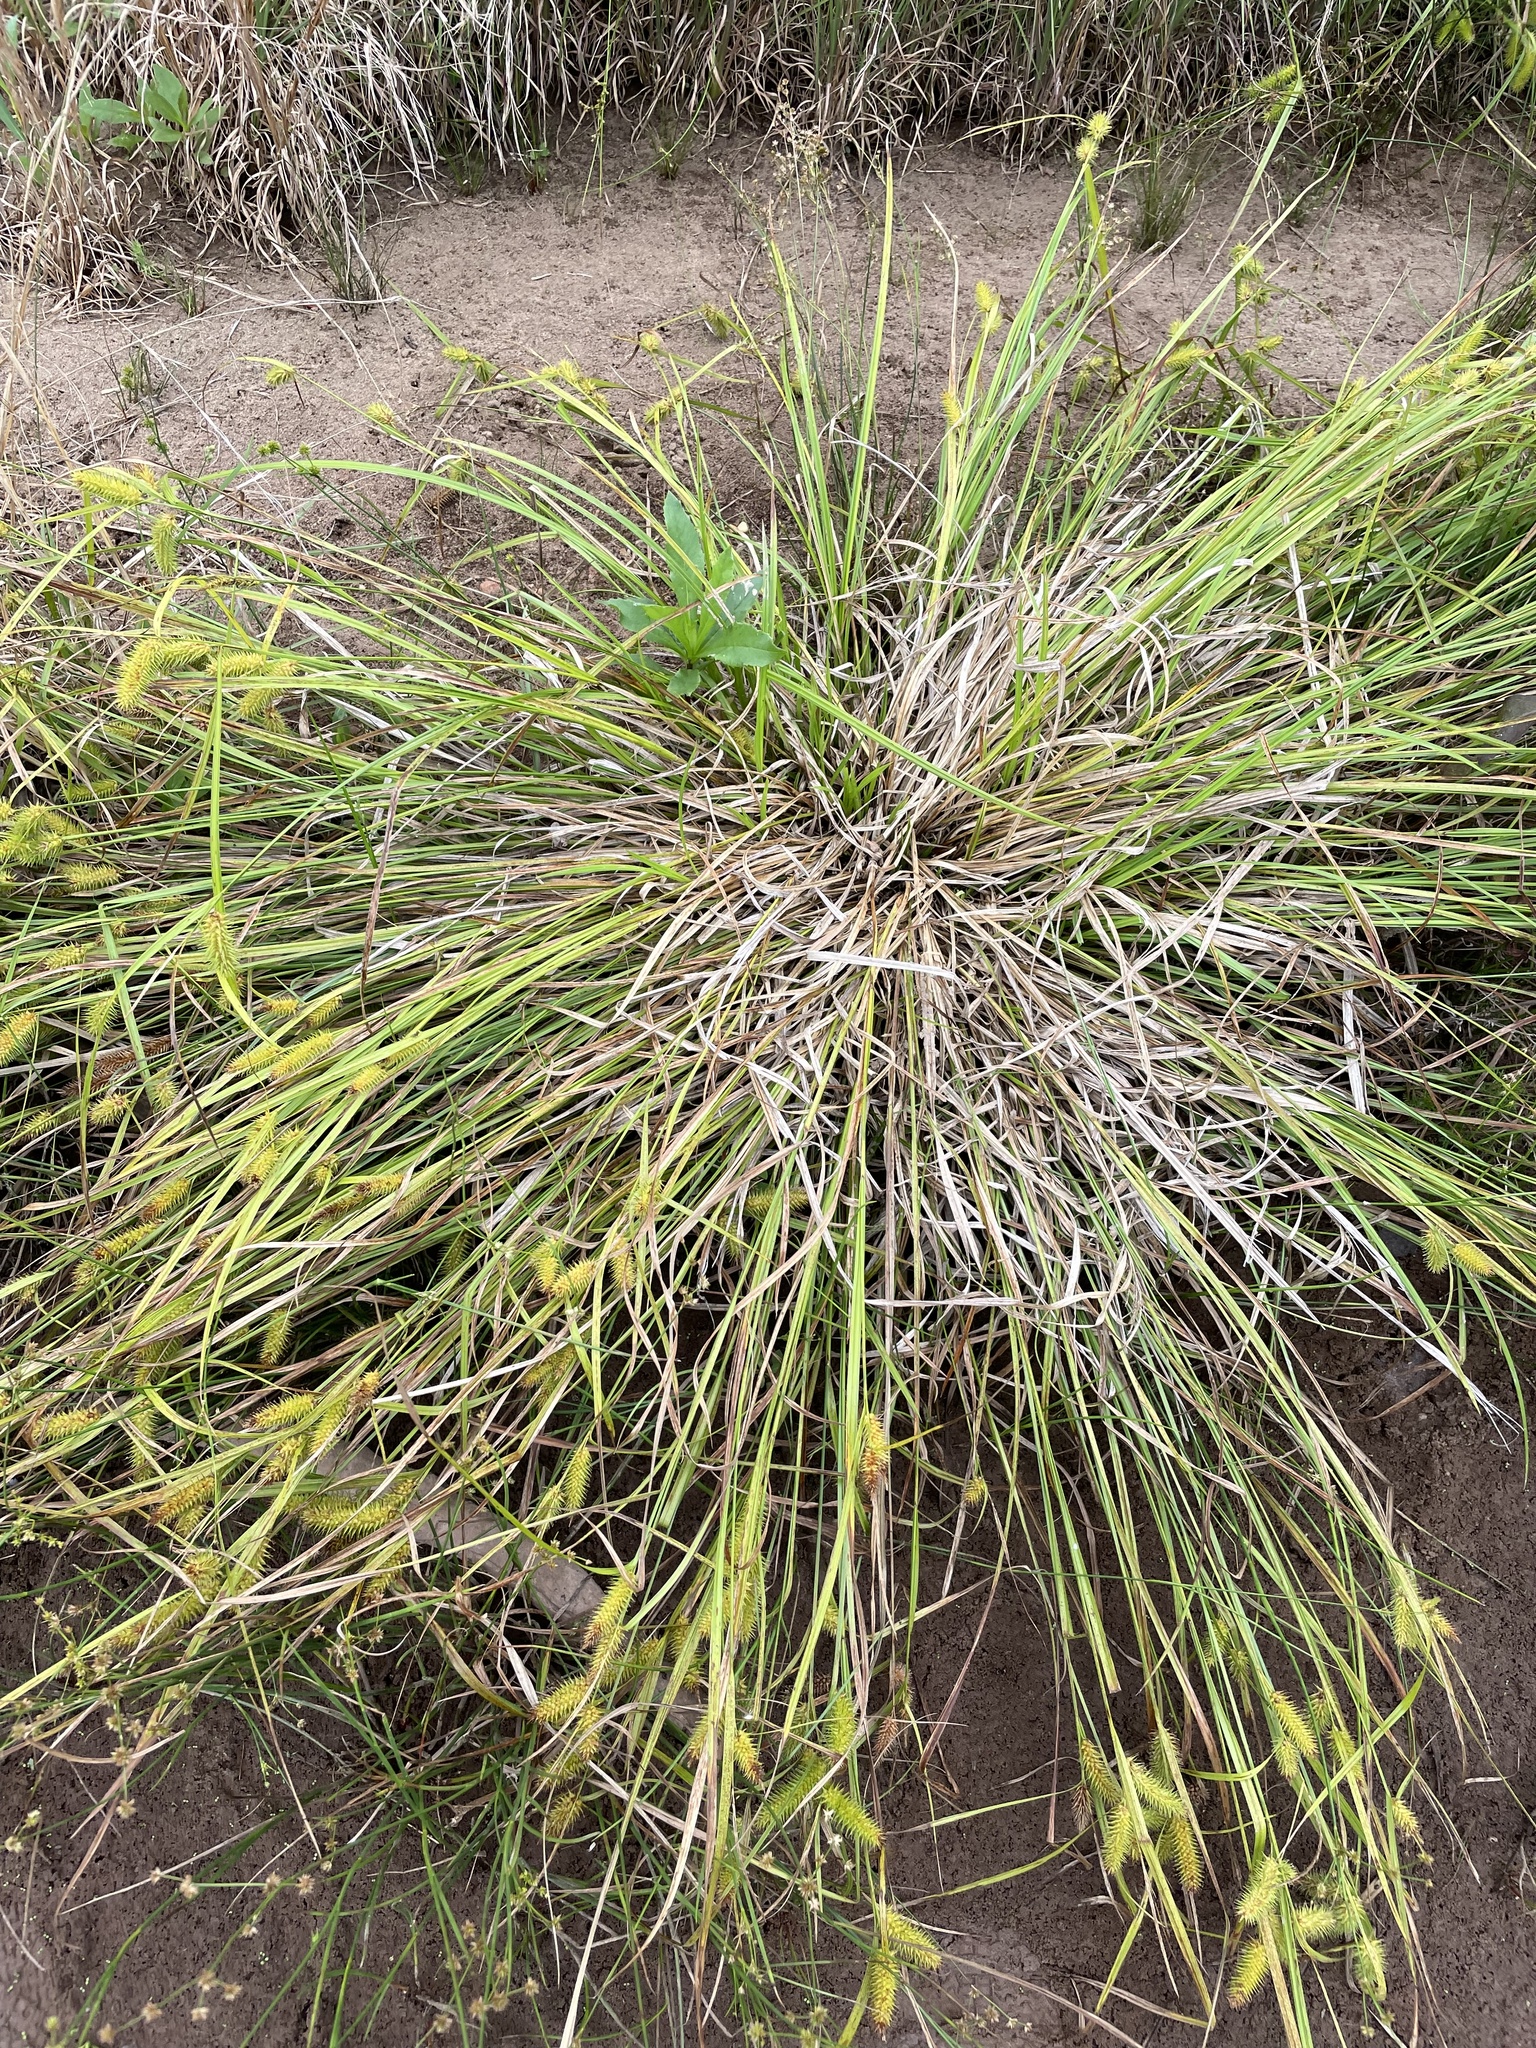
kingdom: Plantae
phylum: Tracheophyta
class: Liliopsida
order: Poales
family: Cyperaceae
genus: Carex
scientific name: Carex lurida
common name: Sallow sedge
